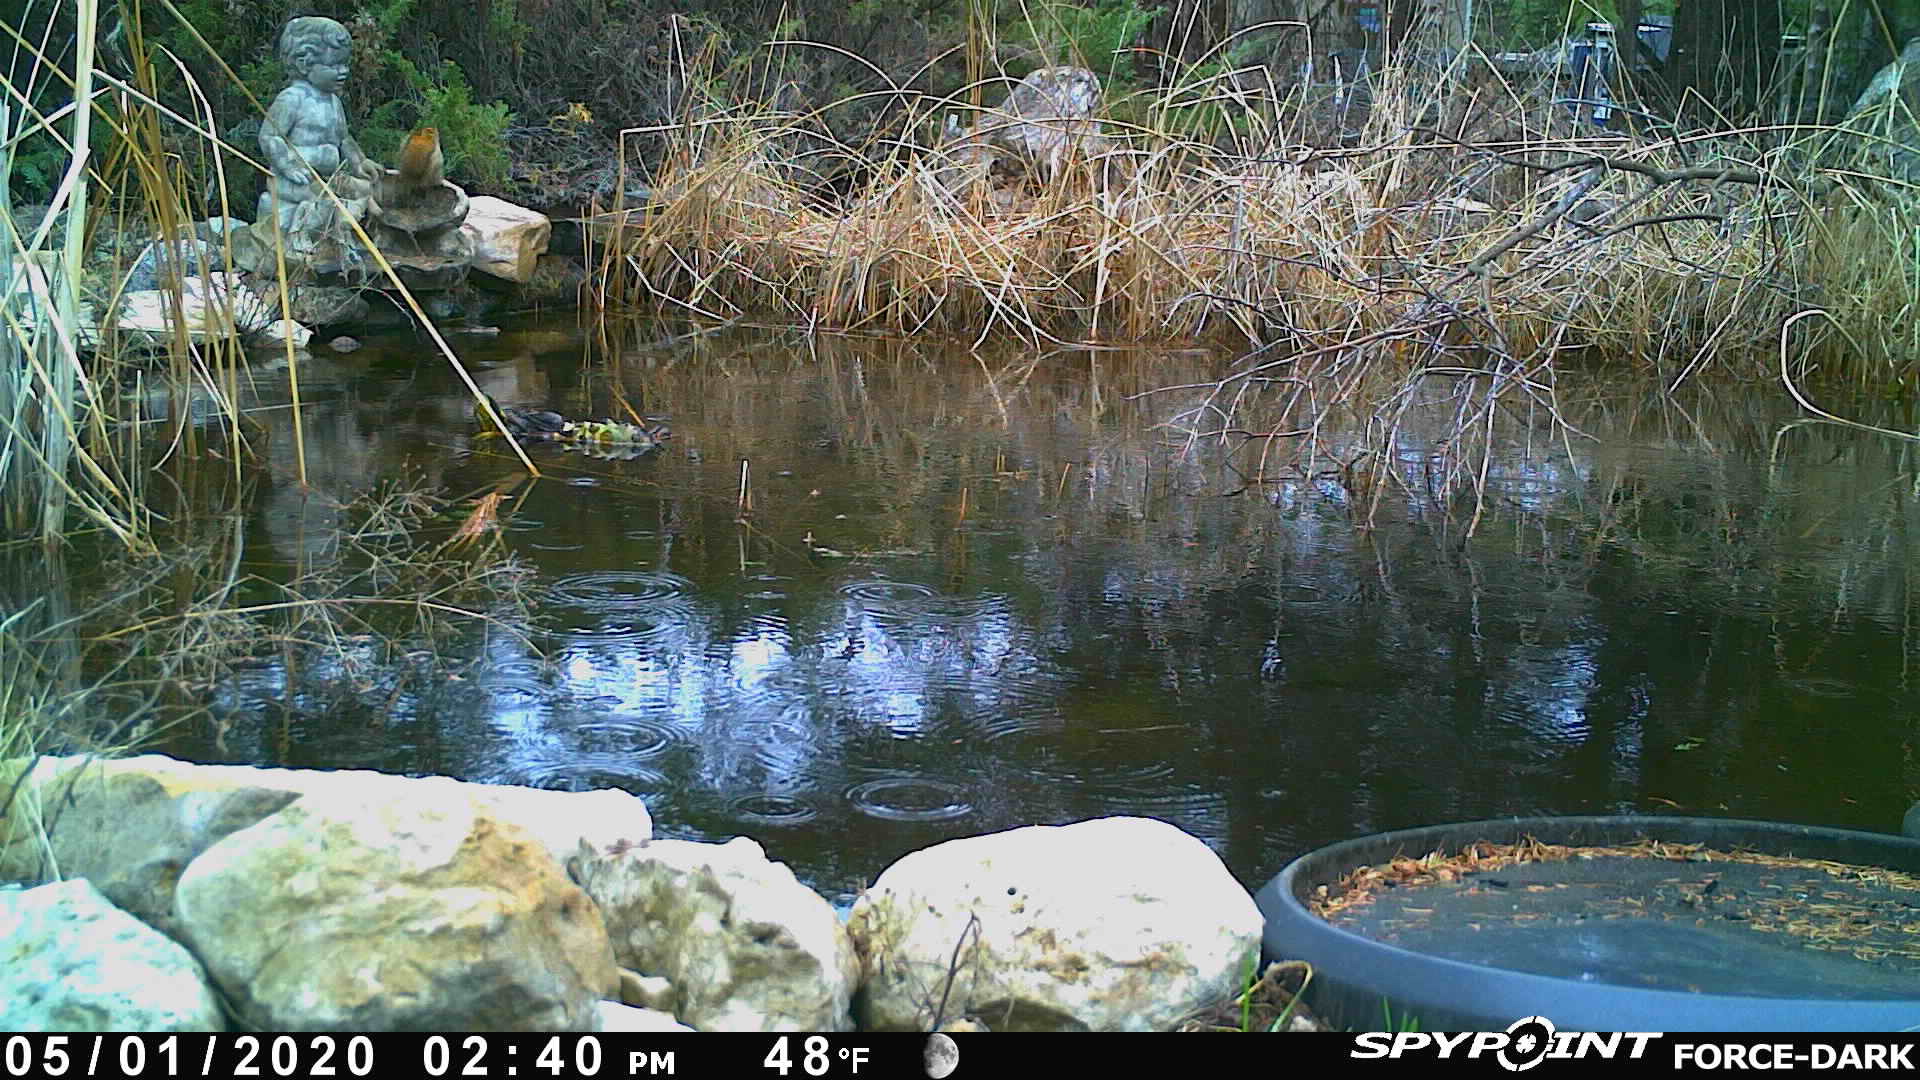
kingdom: Animalia
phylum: Chordata
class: Mammalia
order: Rodentia
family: Sciuridae
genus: Tamiasciurus
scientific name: Tamiasciurus hudsonicus
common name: Red squirrel
